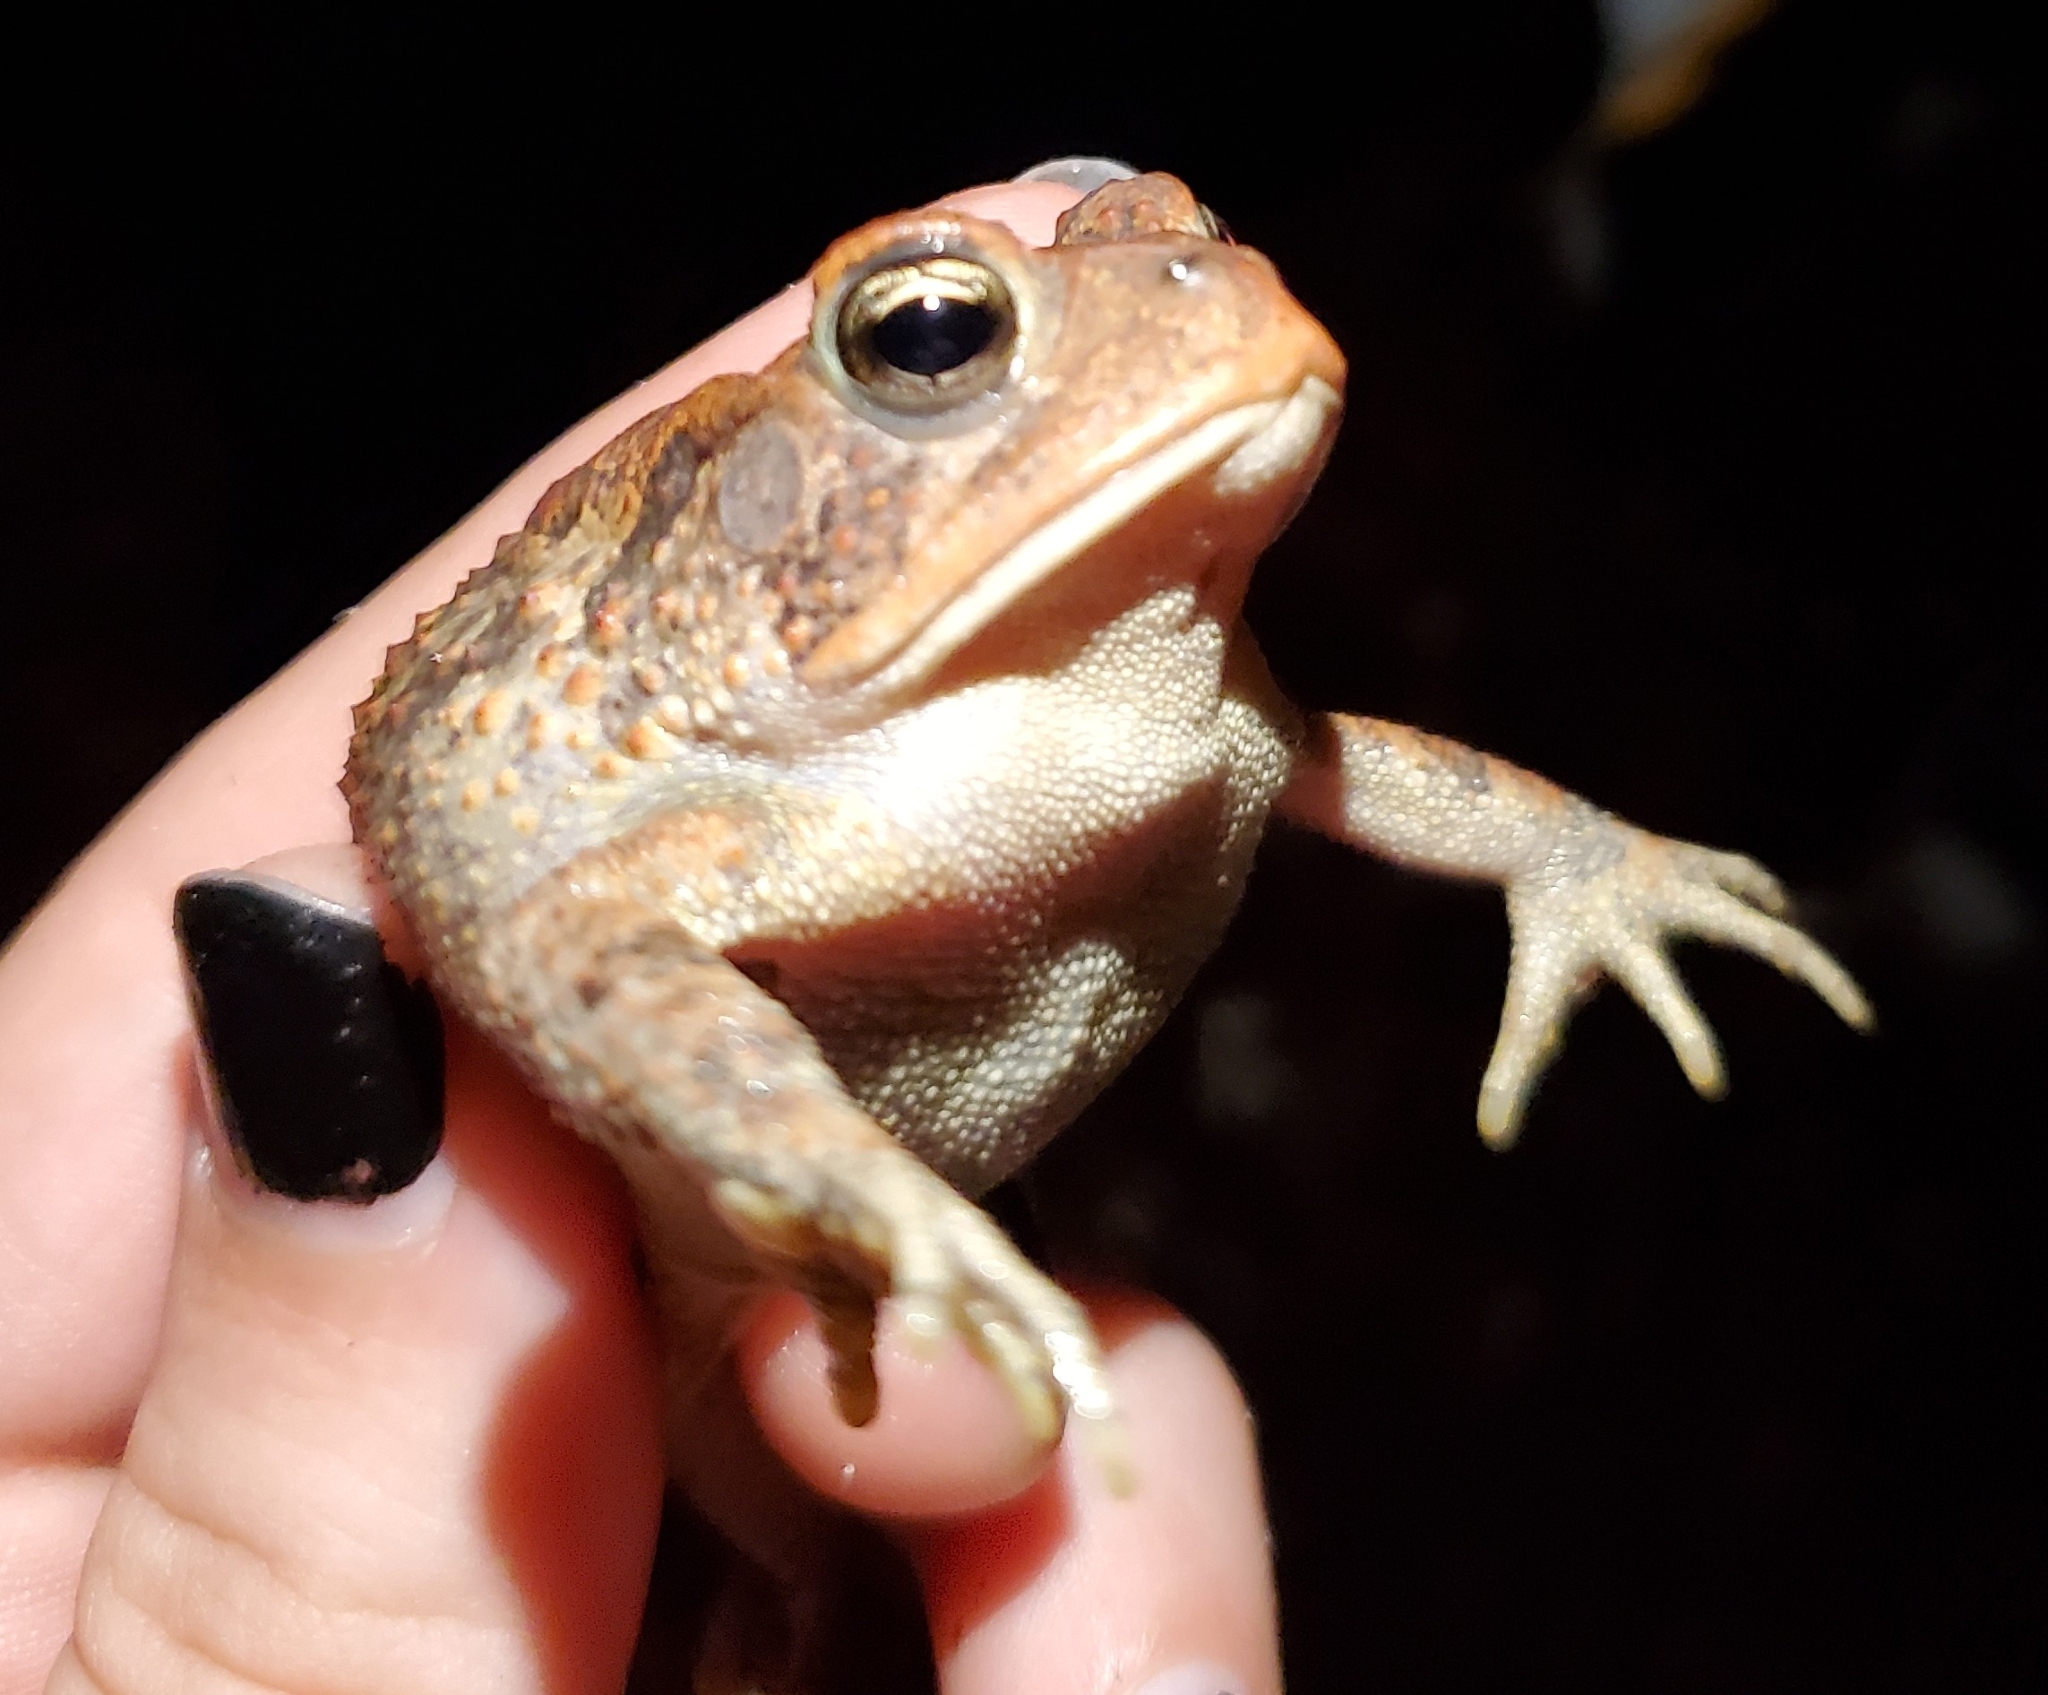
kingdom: Animalia
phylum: Chordata
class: Amphibia
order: Anura
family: Bufonidae
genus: Anaxyrus
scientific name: Anaxyrus terrestris
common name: Southern toad
